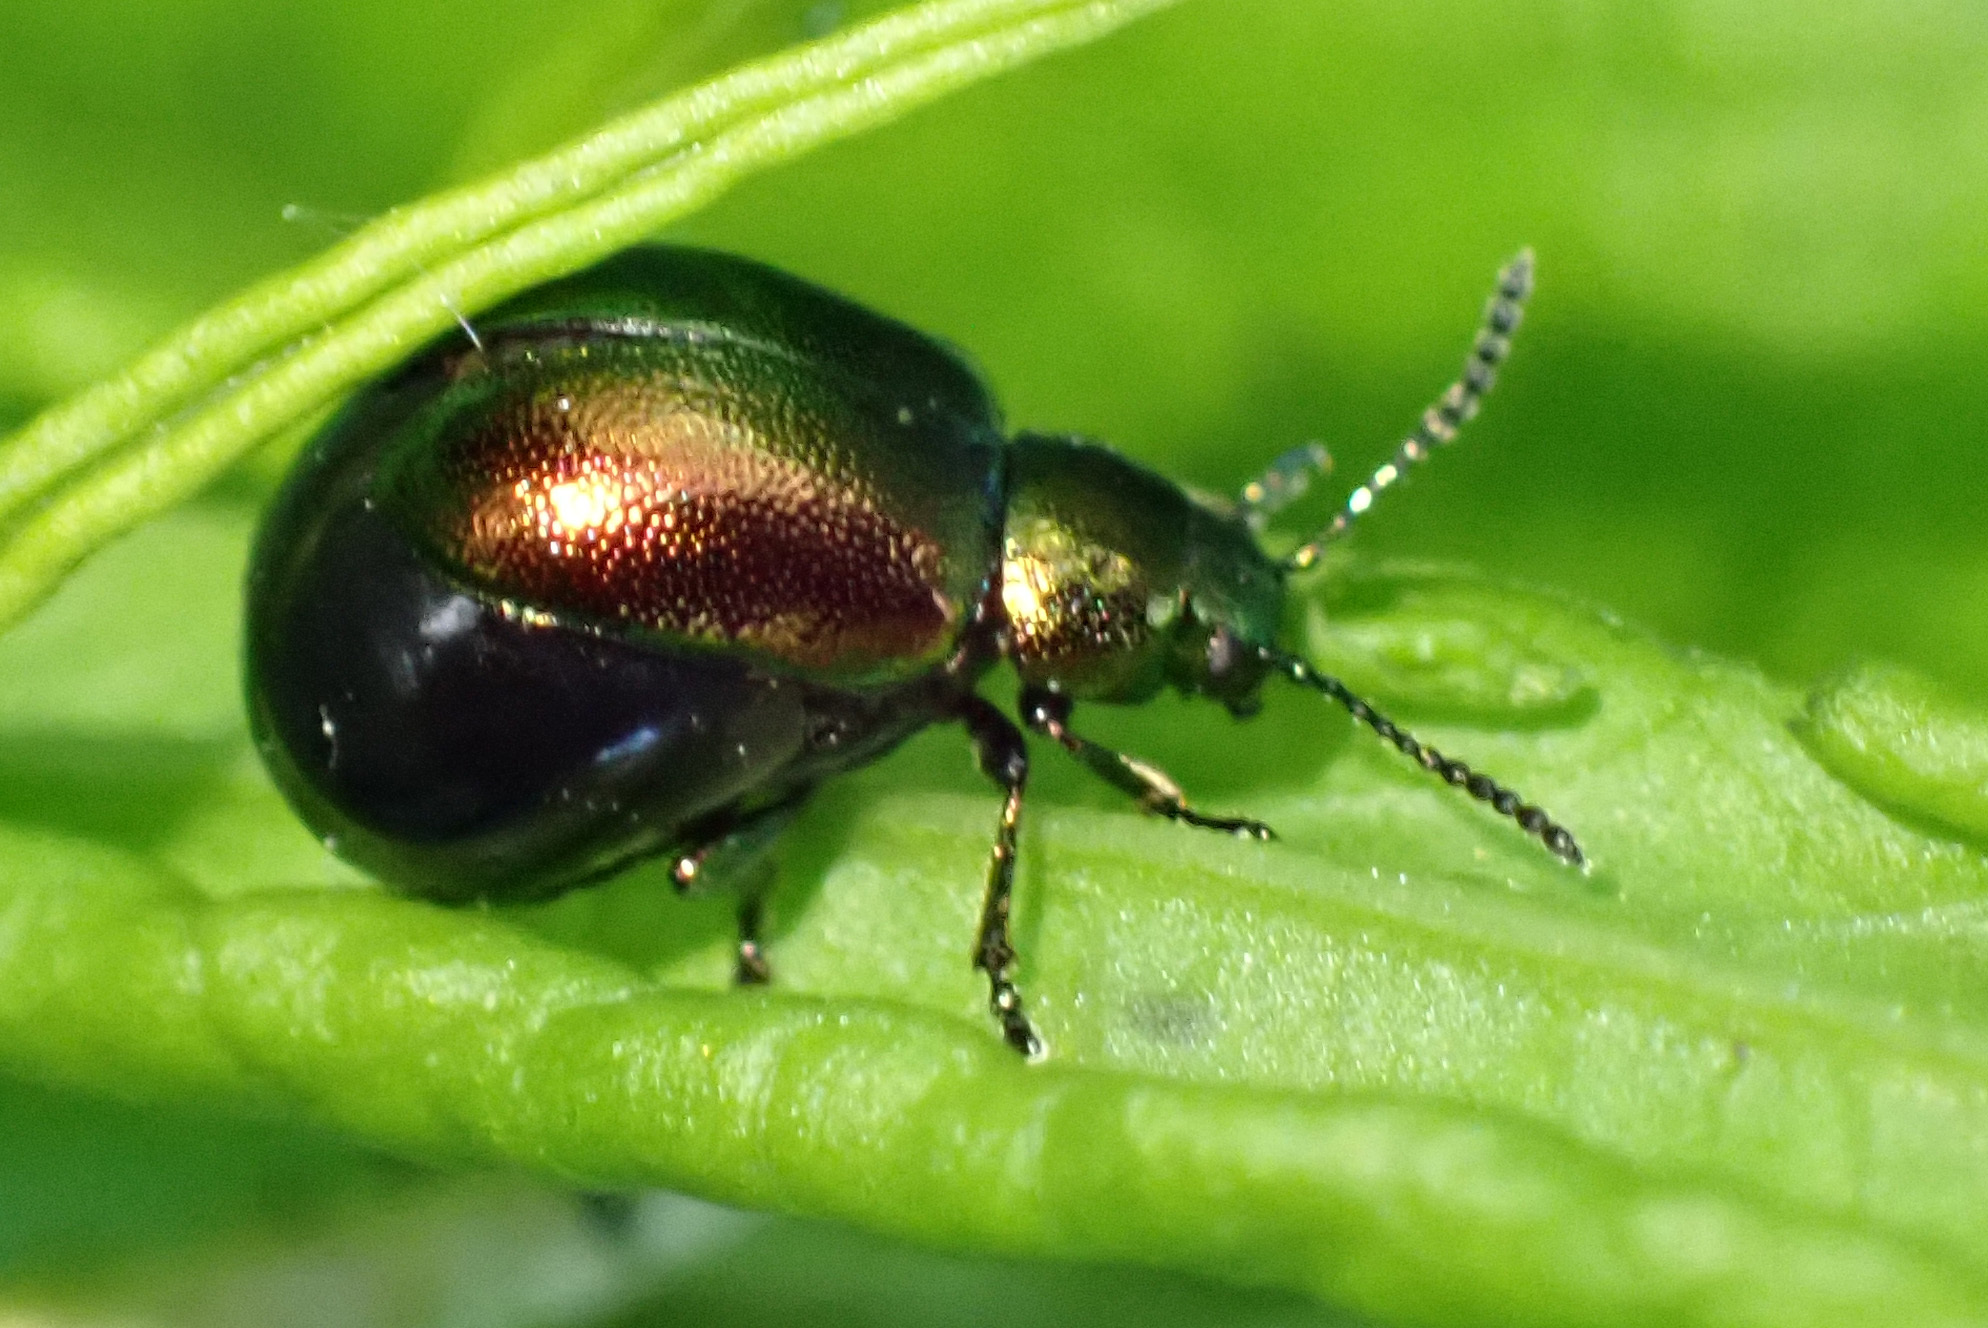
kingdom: Animalia
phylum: Arthropoda
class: Insecta
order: Coleoptera
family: Chrysomelidae
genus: Gastrophysa
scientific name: Gastrophysa viridula
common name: Green dock beetle
